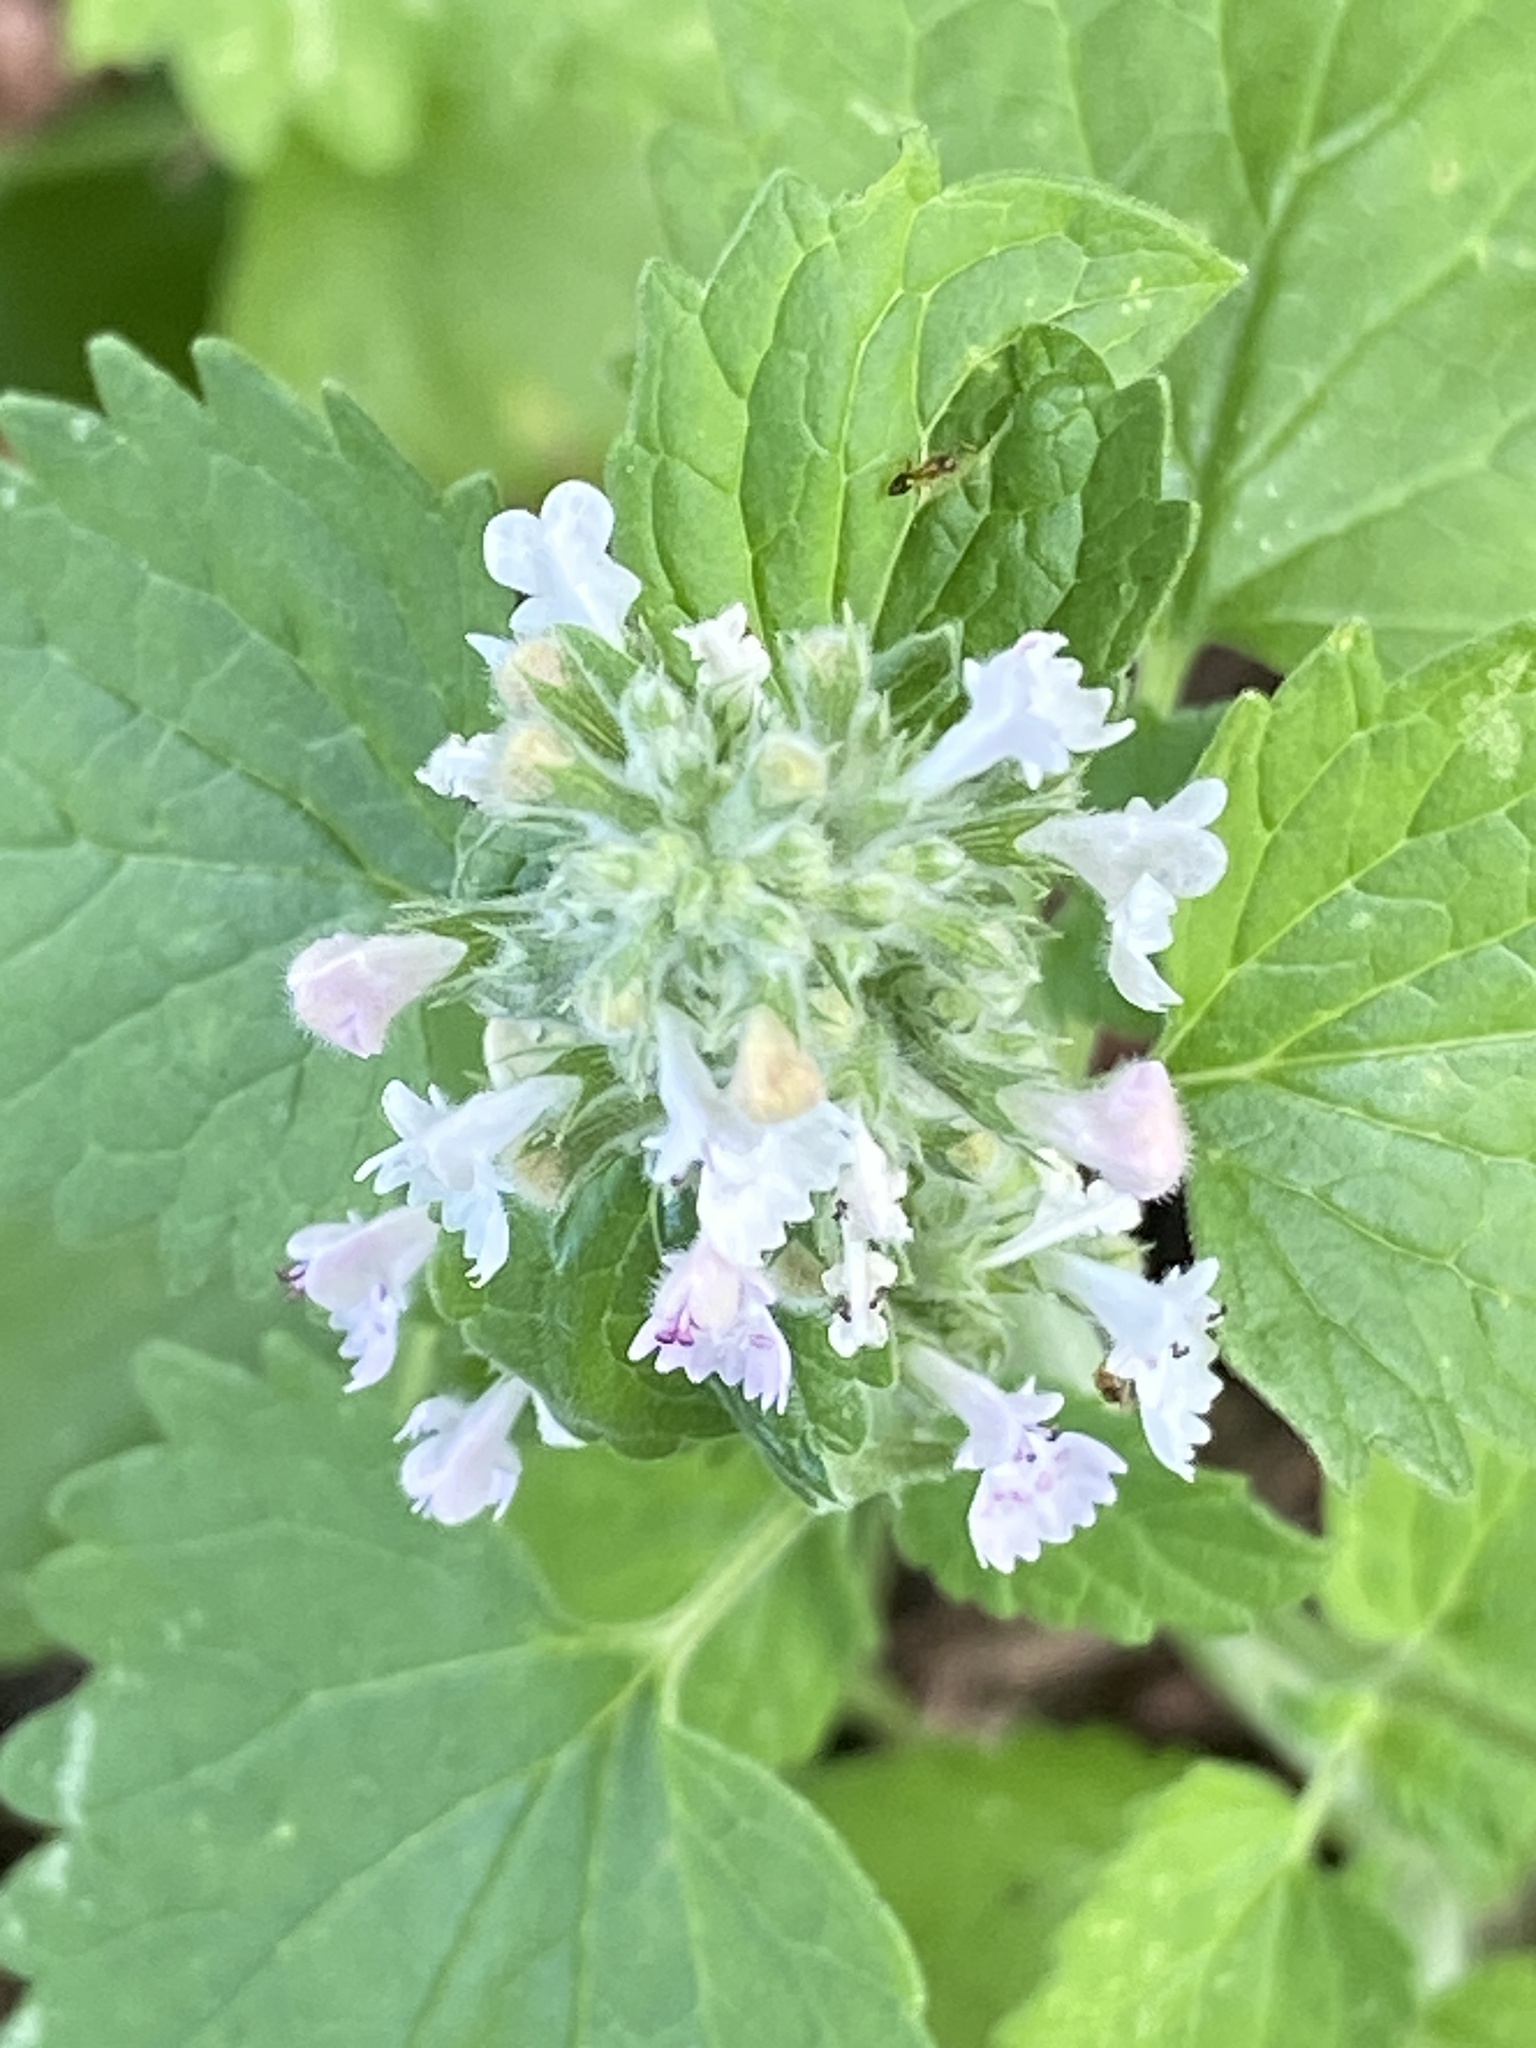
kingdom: Plantae
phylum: Tracheophyta
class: Magnoliopsida
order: Lamiales
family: Lamiaceae
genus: Nepeta
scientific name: Nepeta cataria
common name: Catnip
